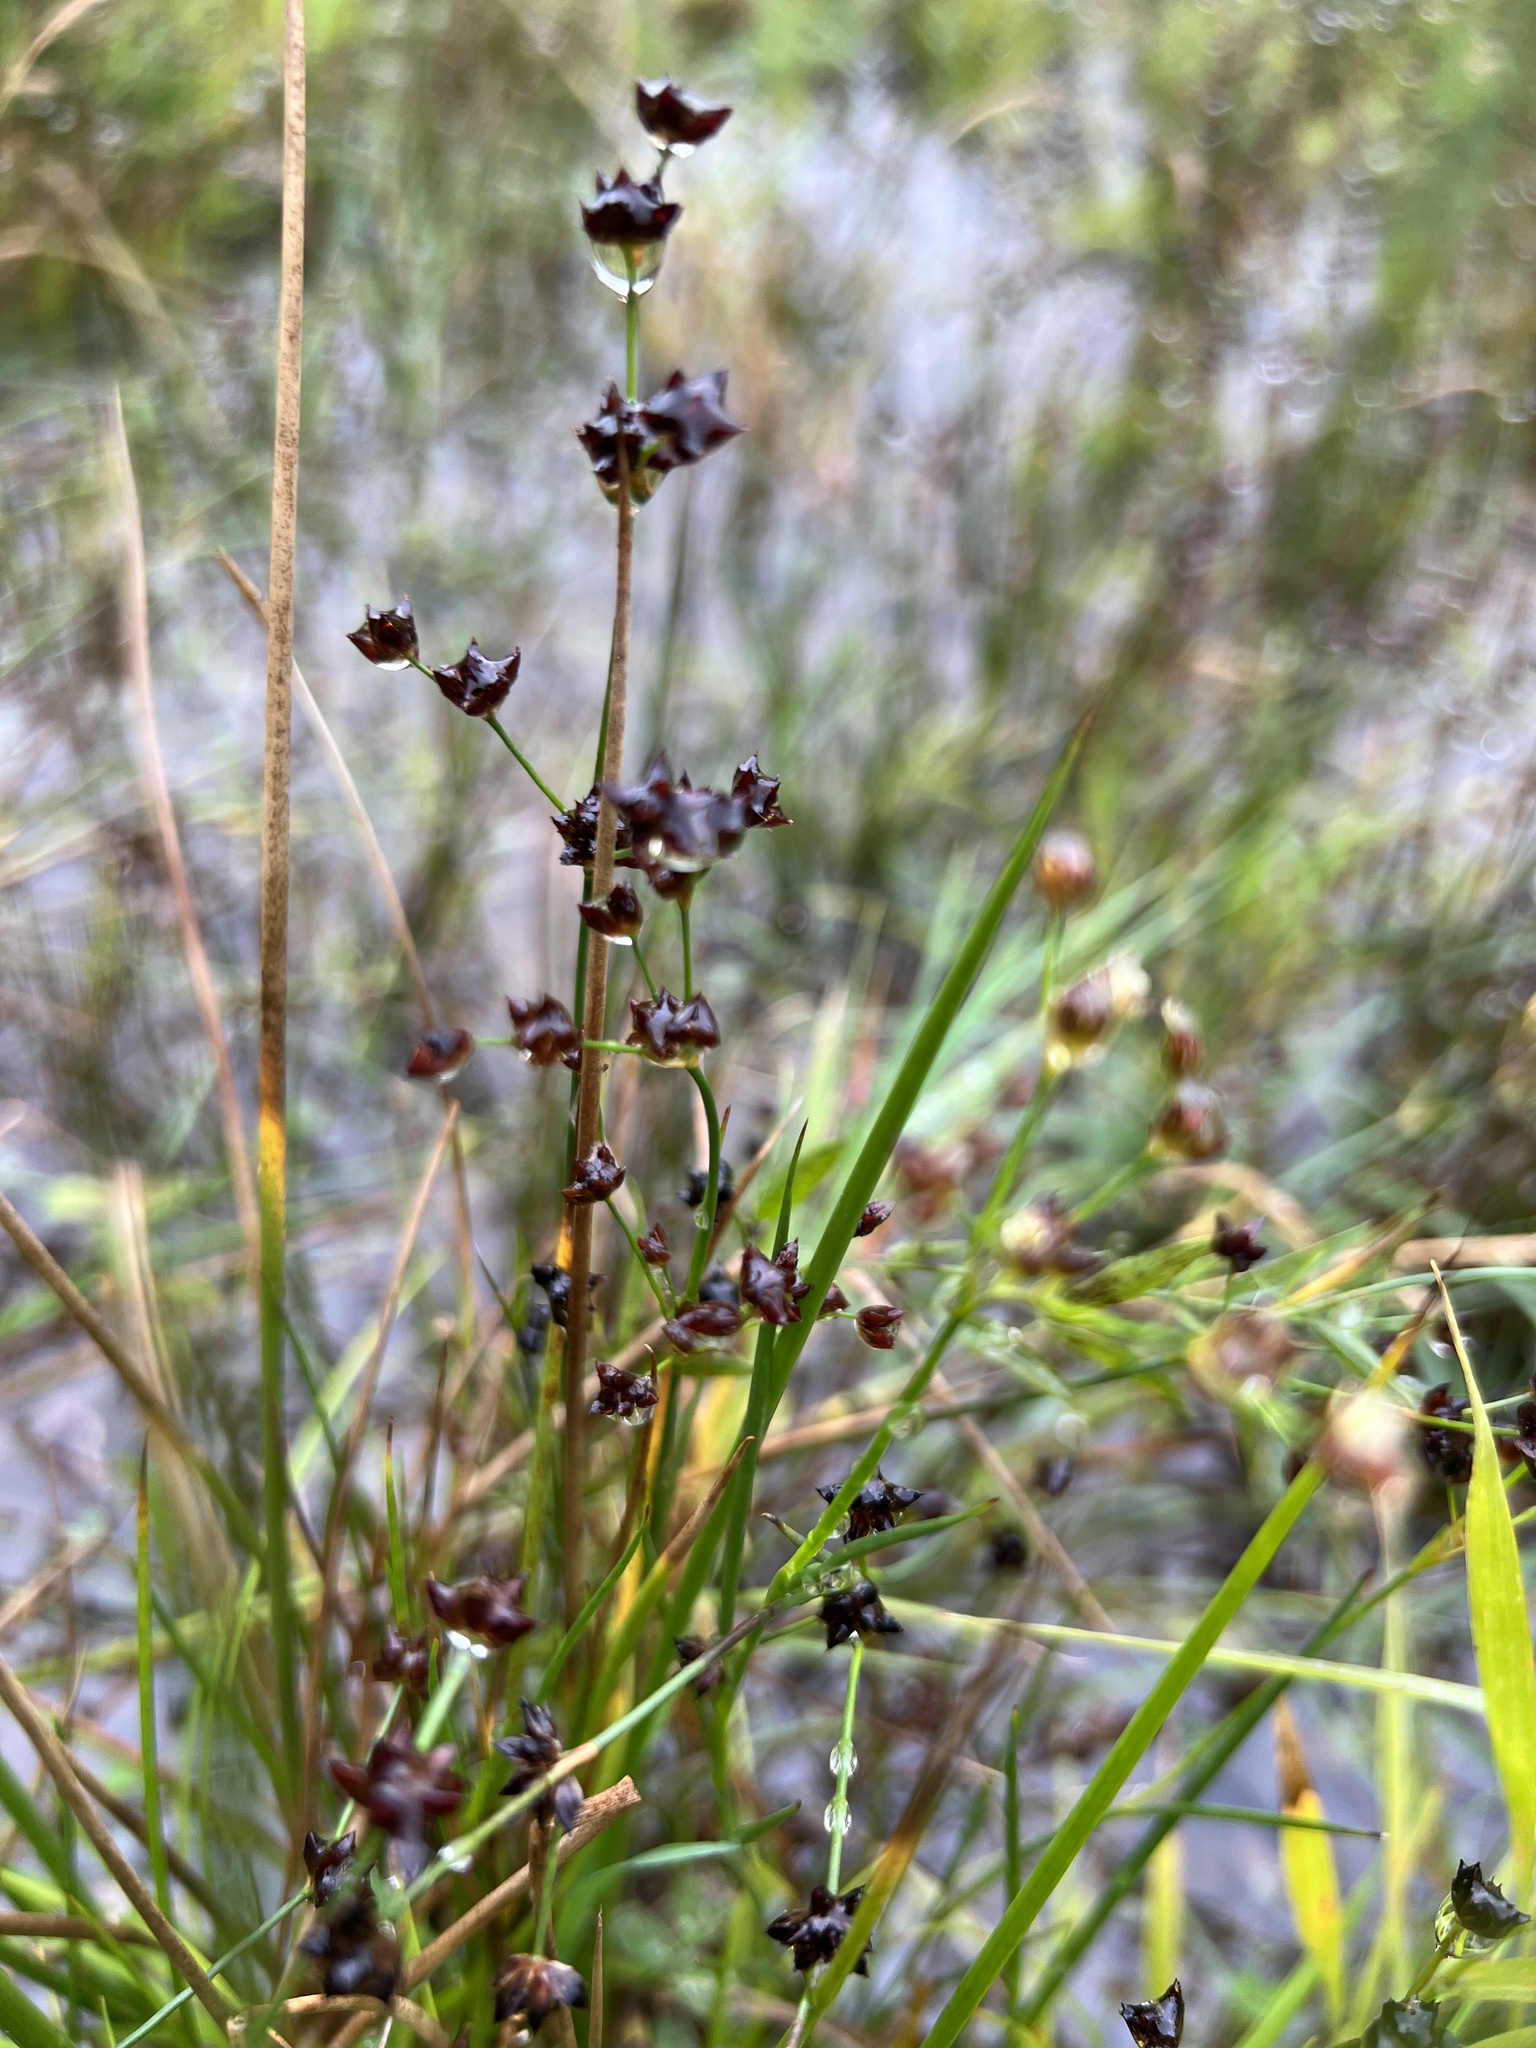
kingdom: Plantae
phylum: Tracheophyta
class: Liliopsida
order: Poales
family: Juncaceae
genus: Juncus
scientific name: Juncus articulatus
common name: Jointed rush
